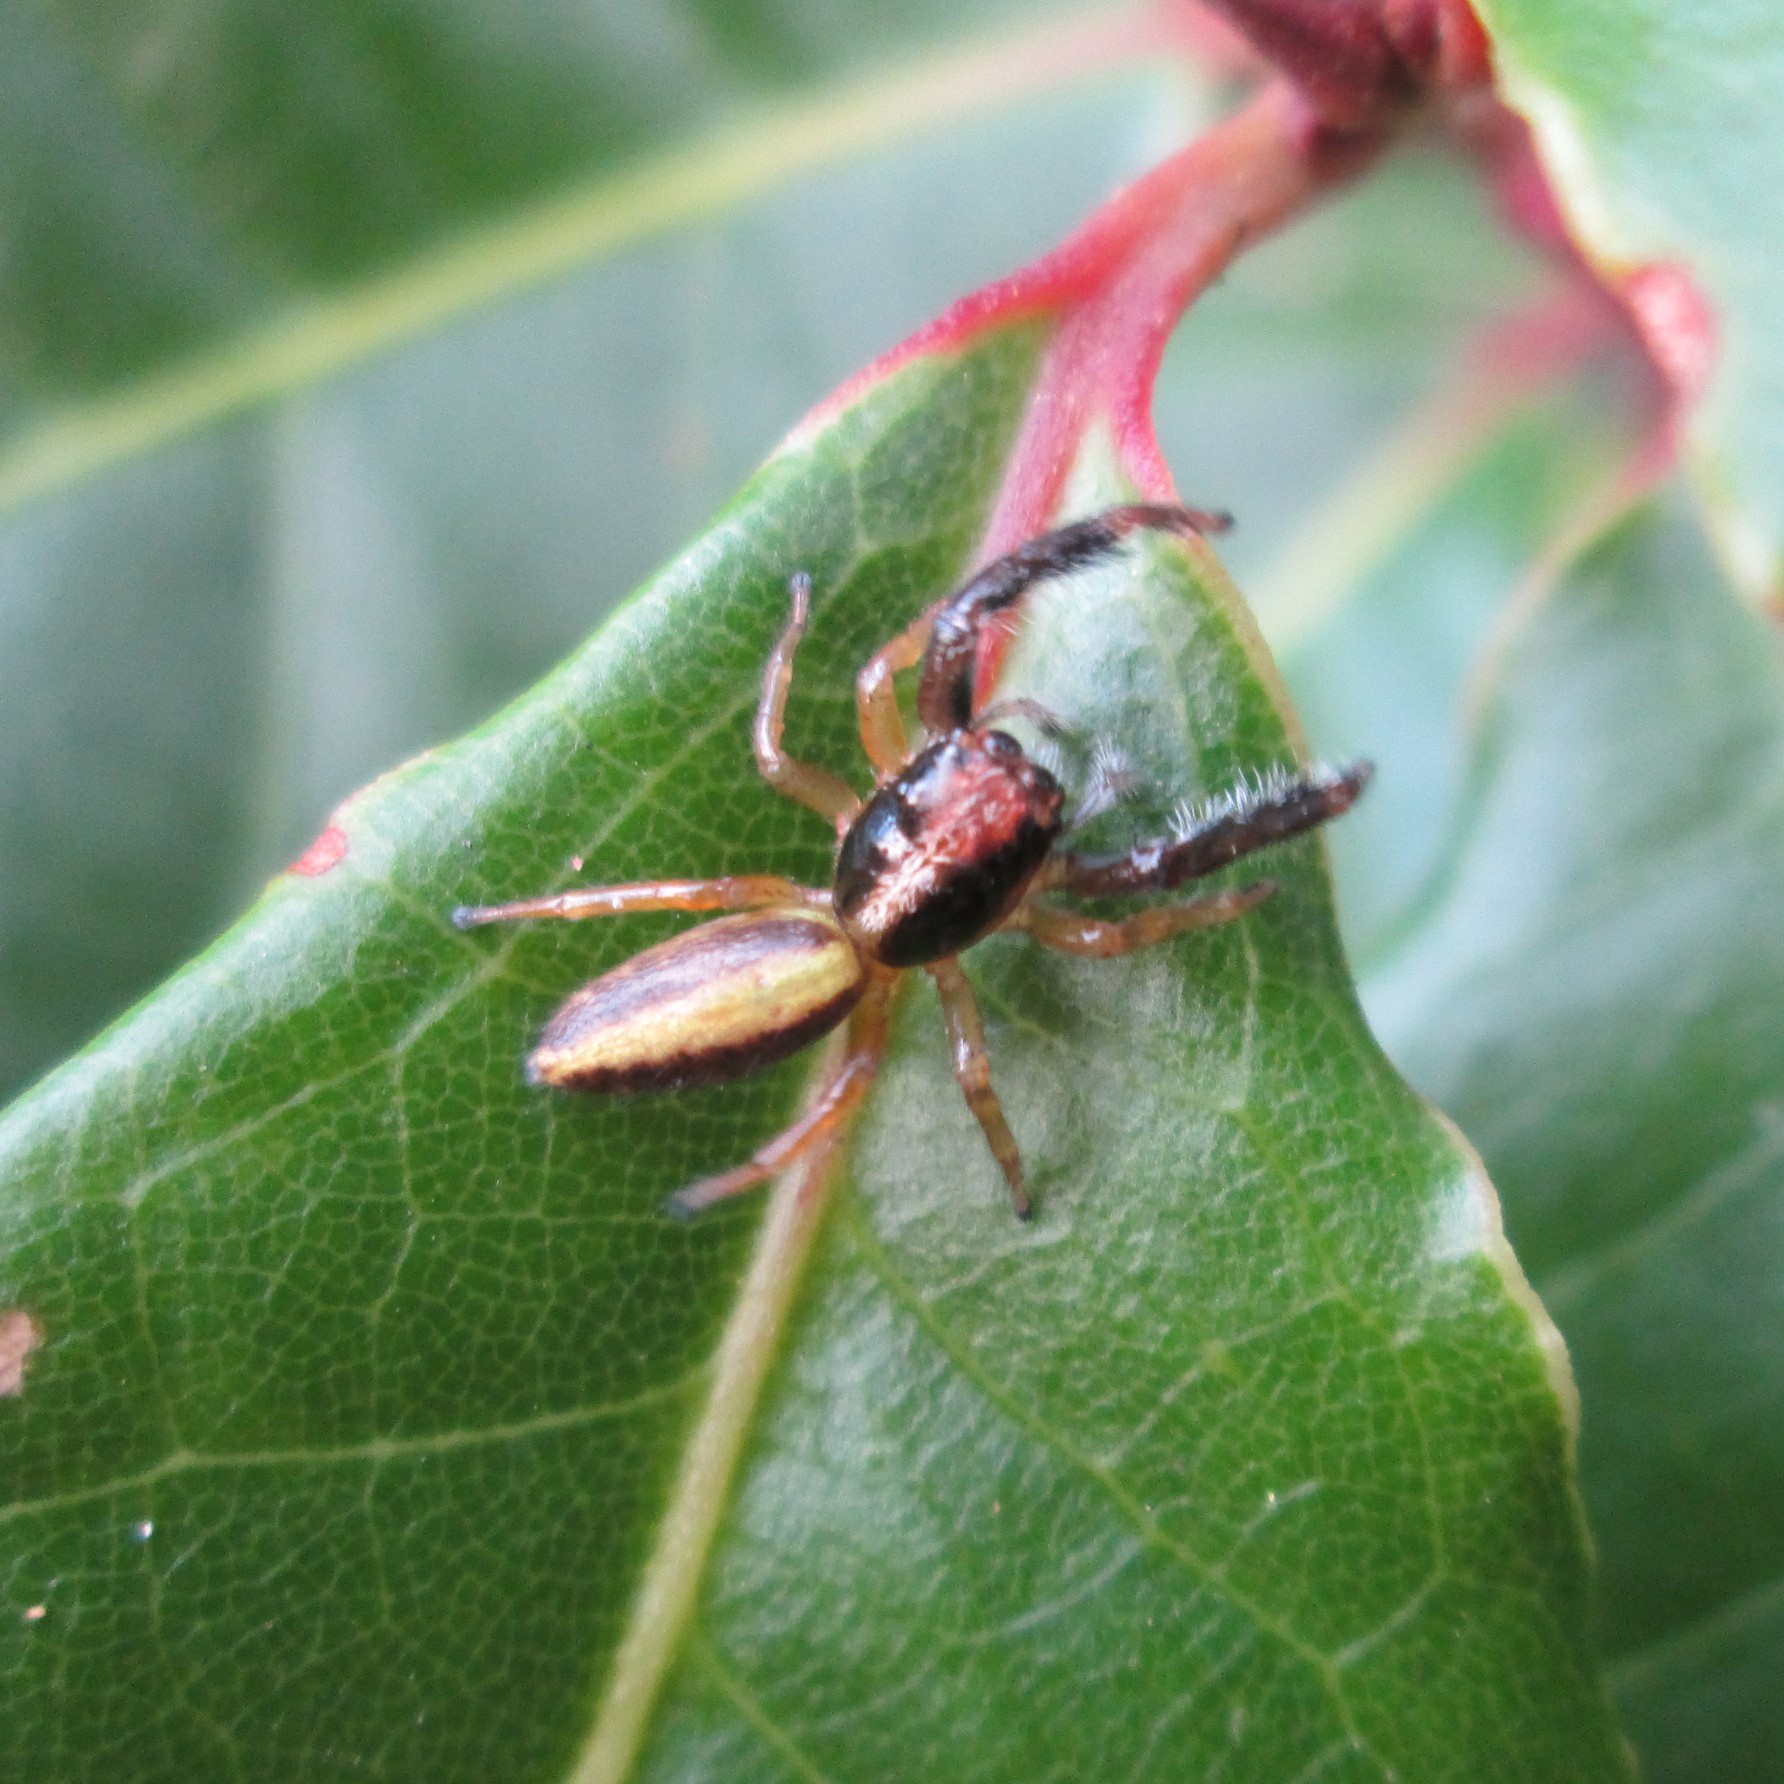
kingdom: Animalia
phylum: Arthropoda
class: Arachnida
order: Araneae
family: Salticidae
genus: Trite
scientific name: Trite planiceps
